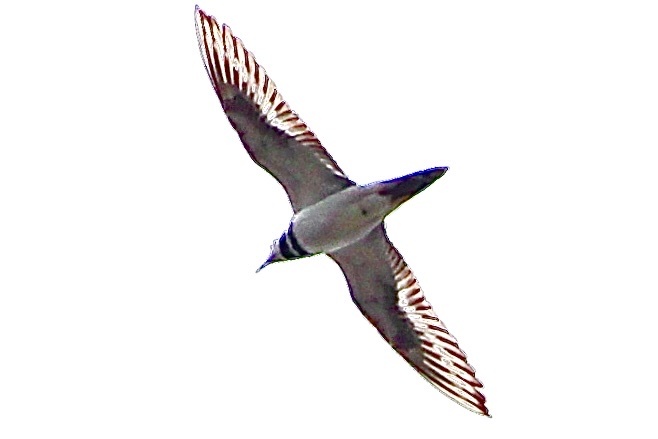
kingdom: Animalia
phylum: Chordata
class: Aves
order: Charadriiformes
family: Charadriidae
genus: Charadrius
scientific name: Charadrius vociferus
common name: Killdeer
